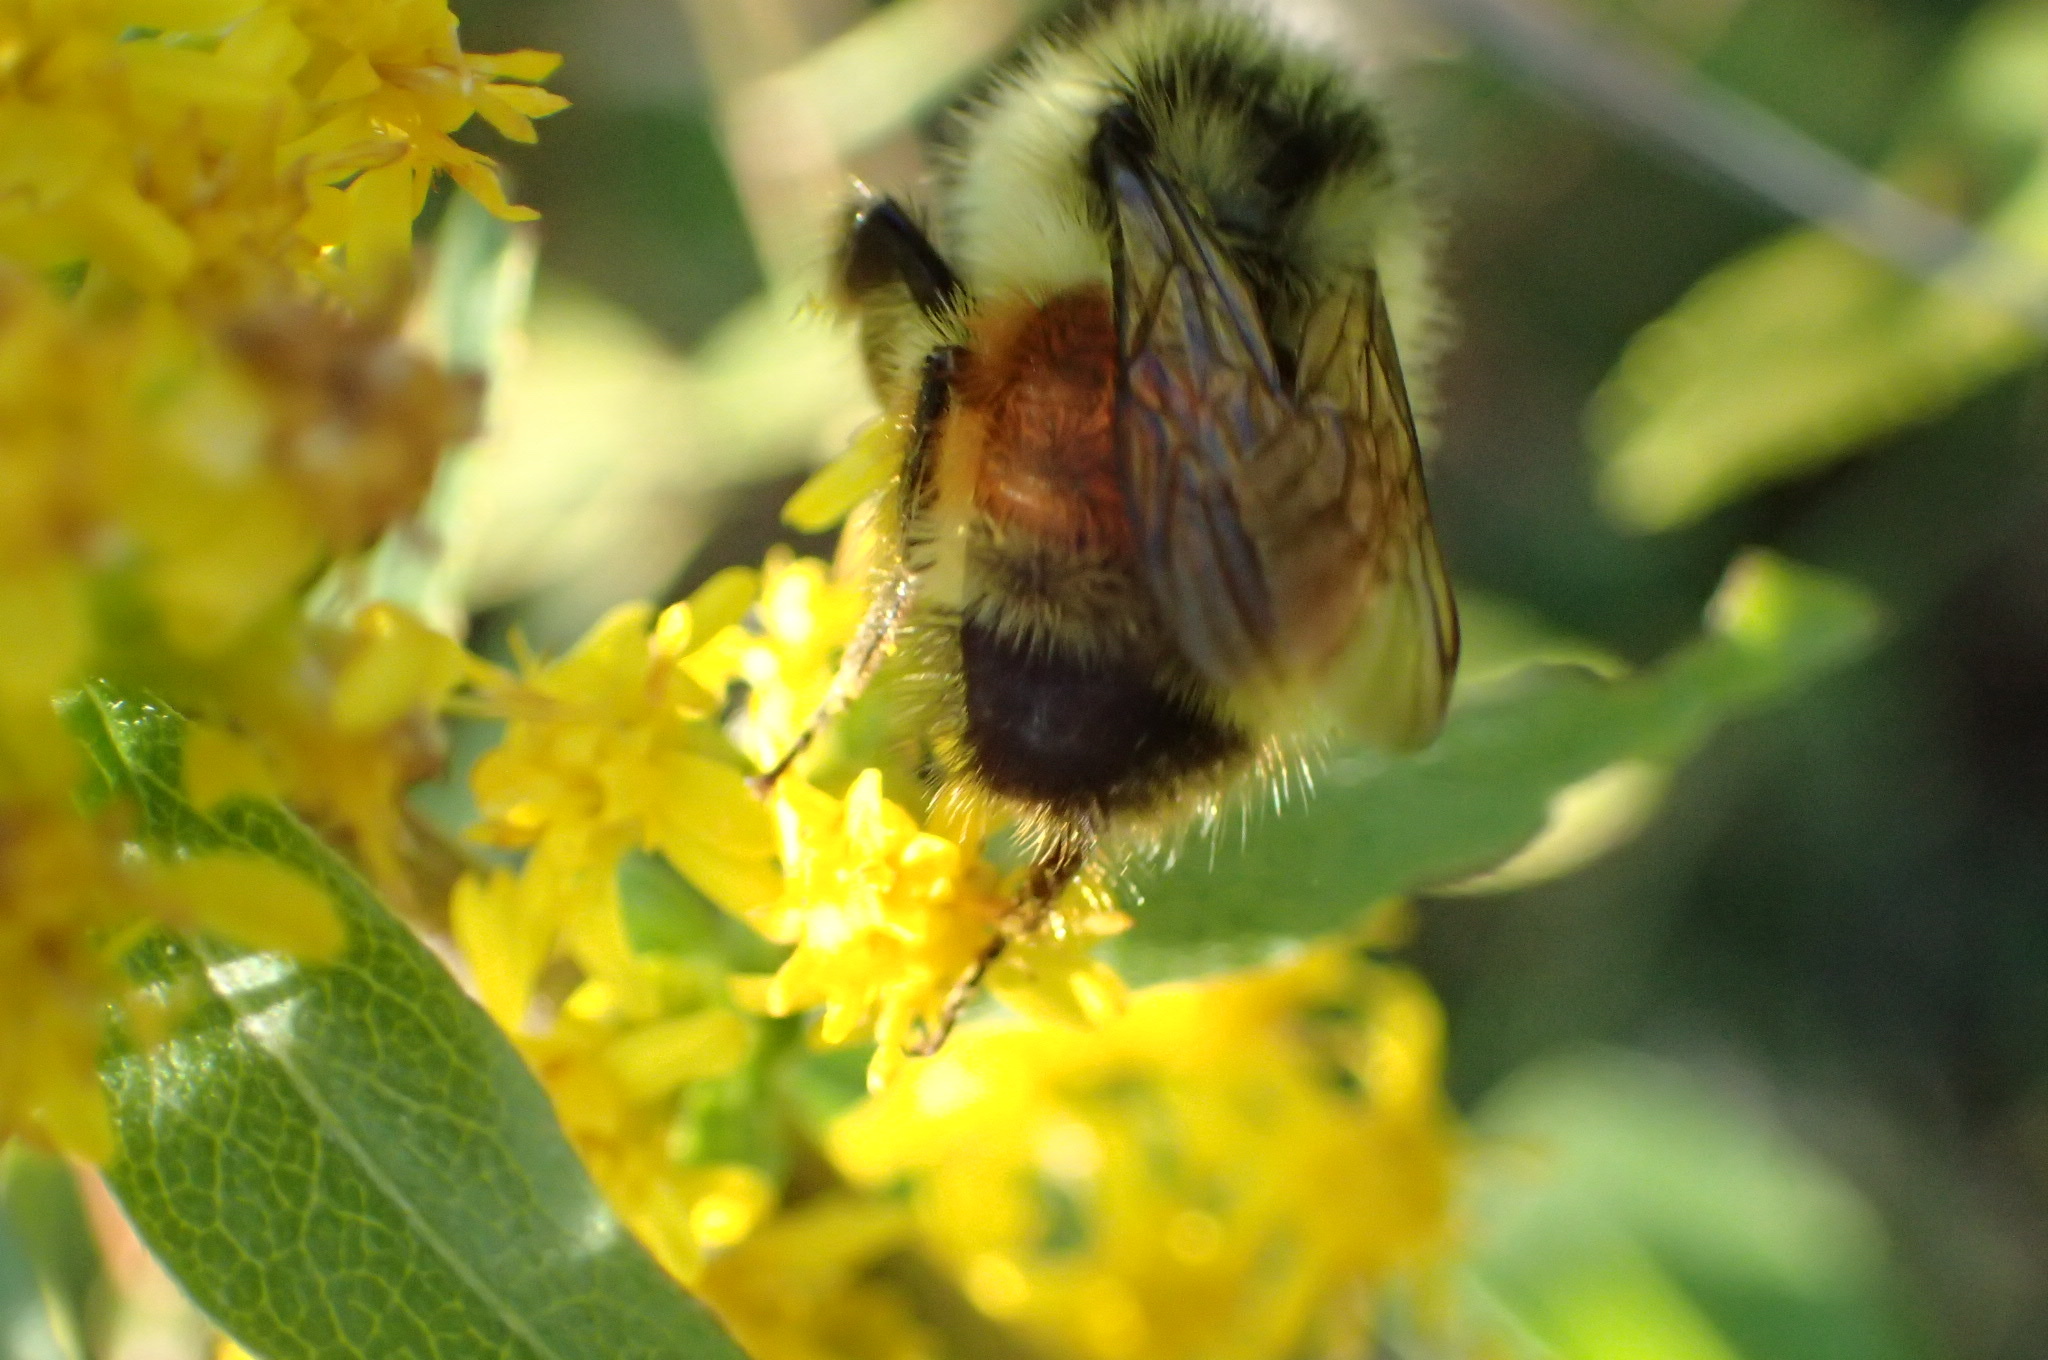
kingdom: Animalia
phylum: Arthropoda
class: Insecta
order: Hymenoptera
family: Apidae
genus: Bombus
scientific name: Bombus ternarius
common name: Tri-colored bumble bee
